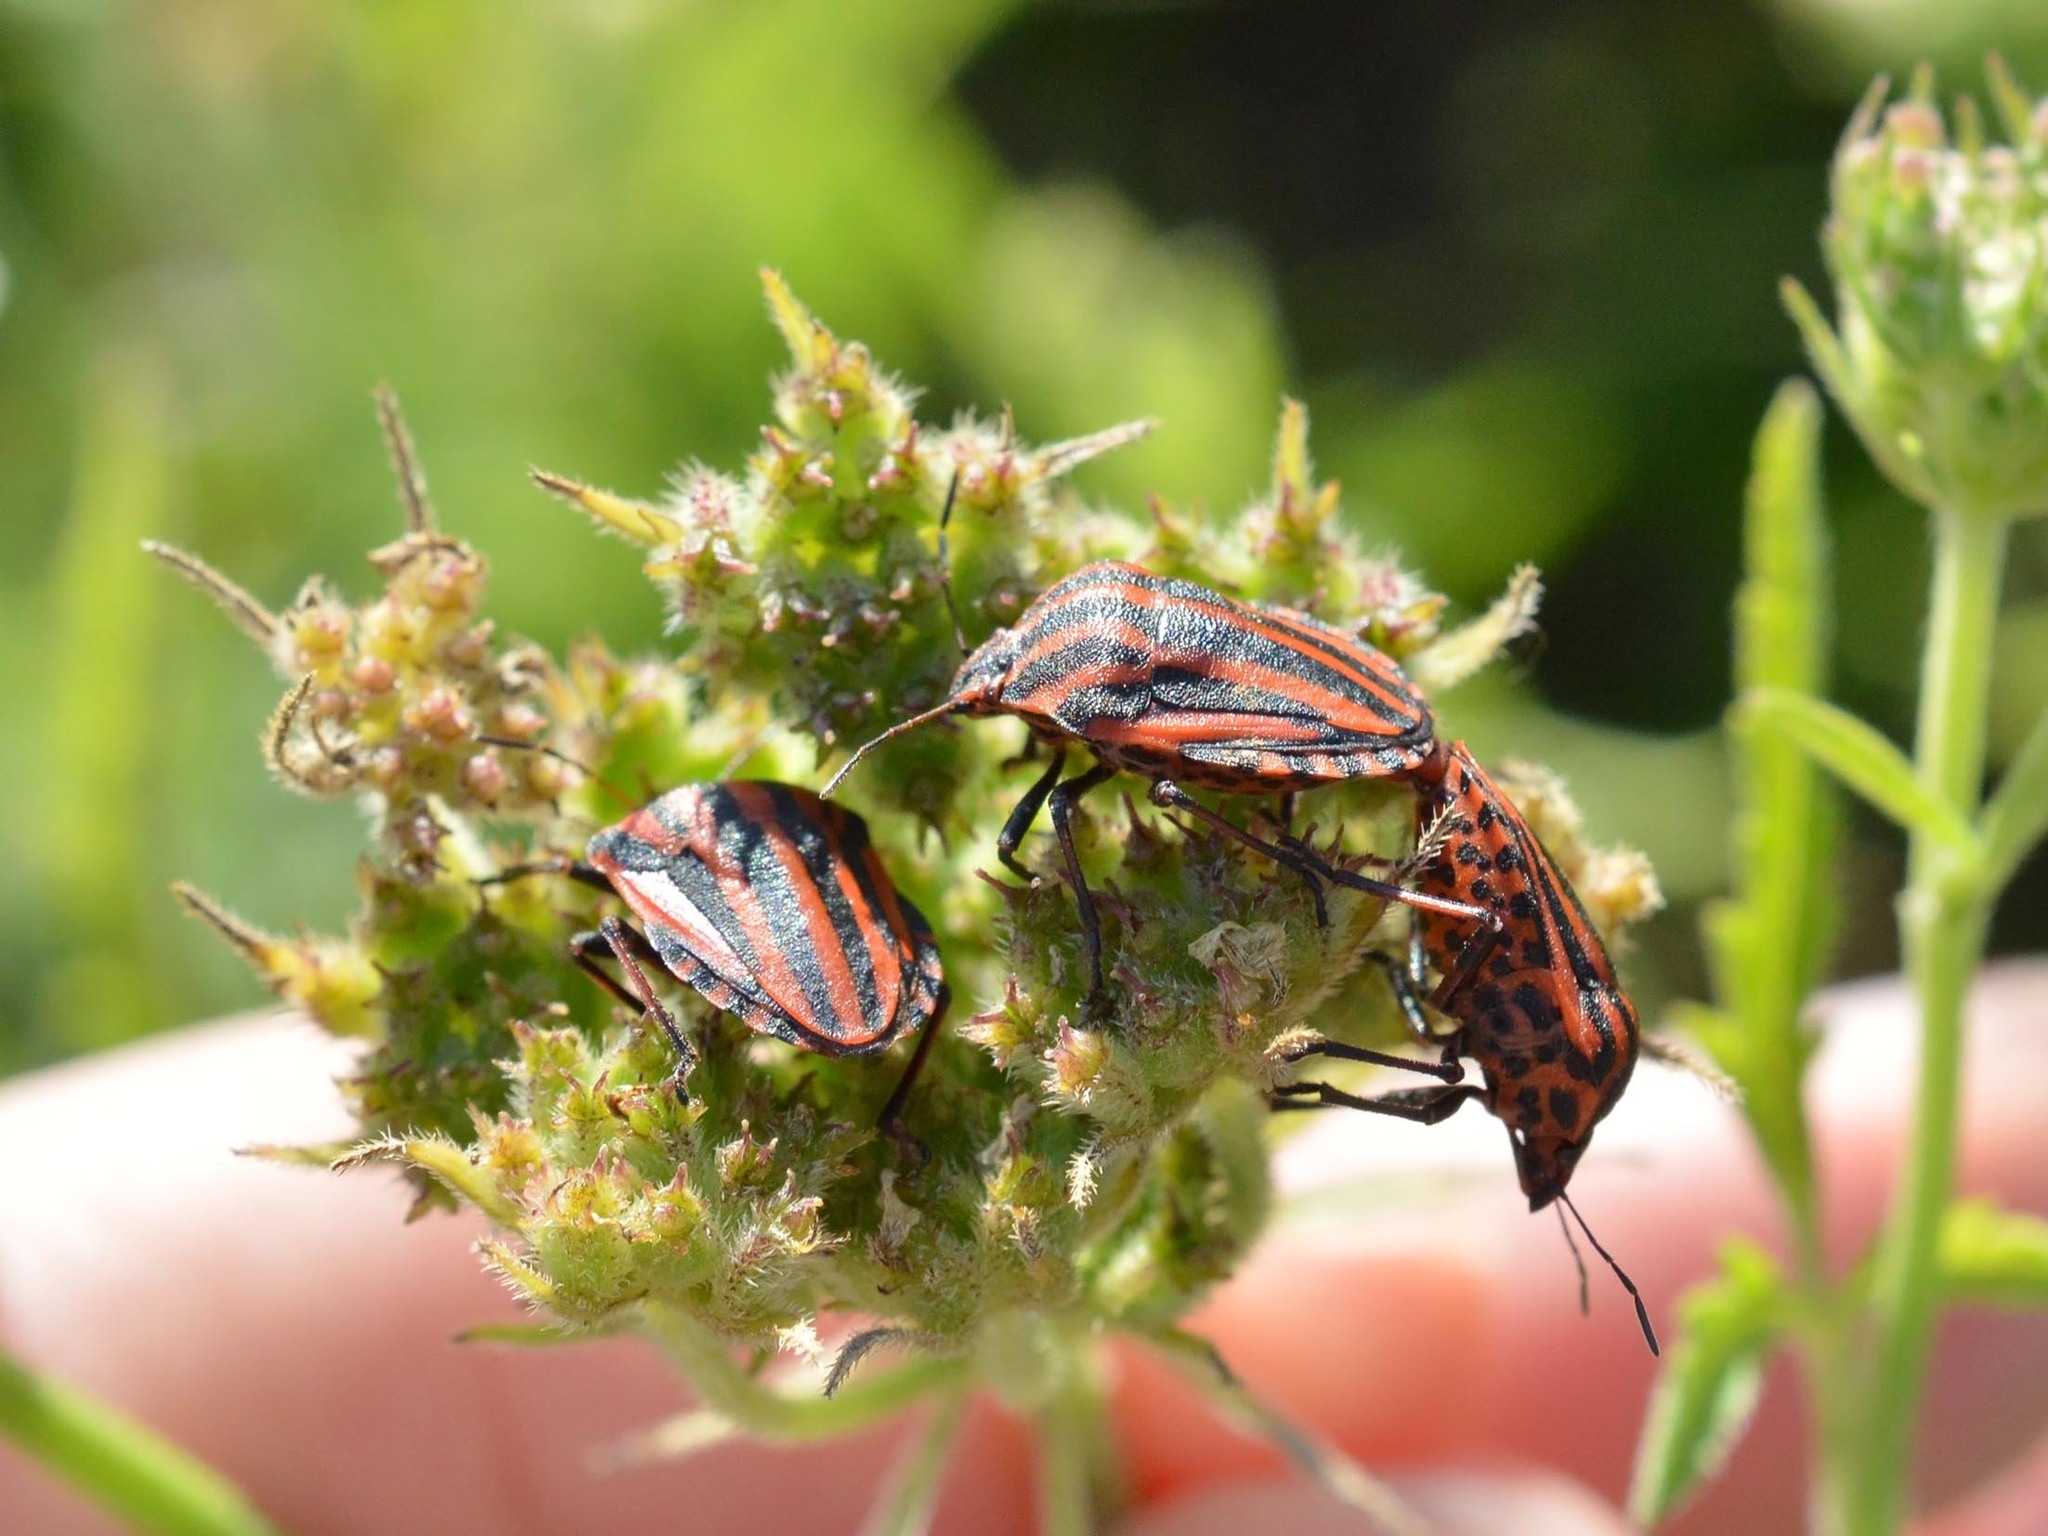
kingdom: Animalia
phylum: Arthropoda
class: Insecta
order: Hemiptera
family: Pentatomidae
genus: Graphosoma
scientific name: Graphosoma italicum
